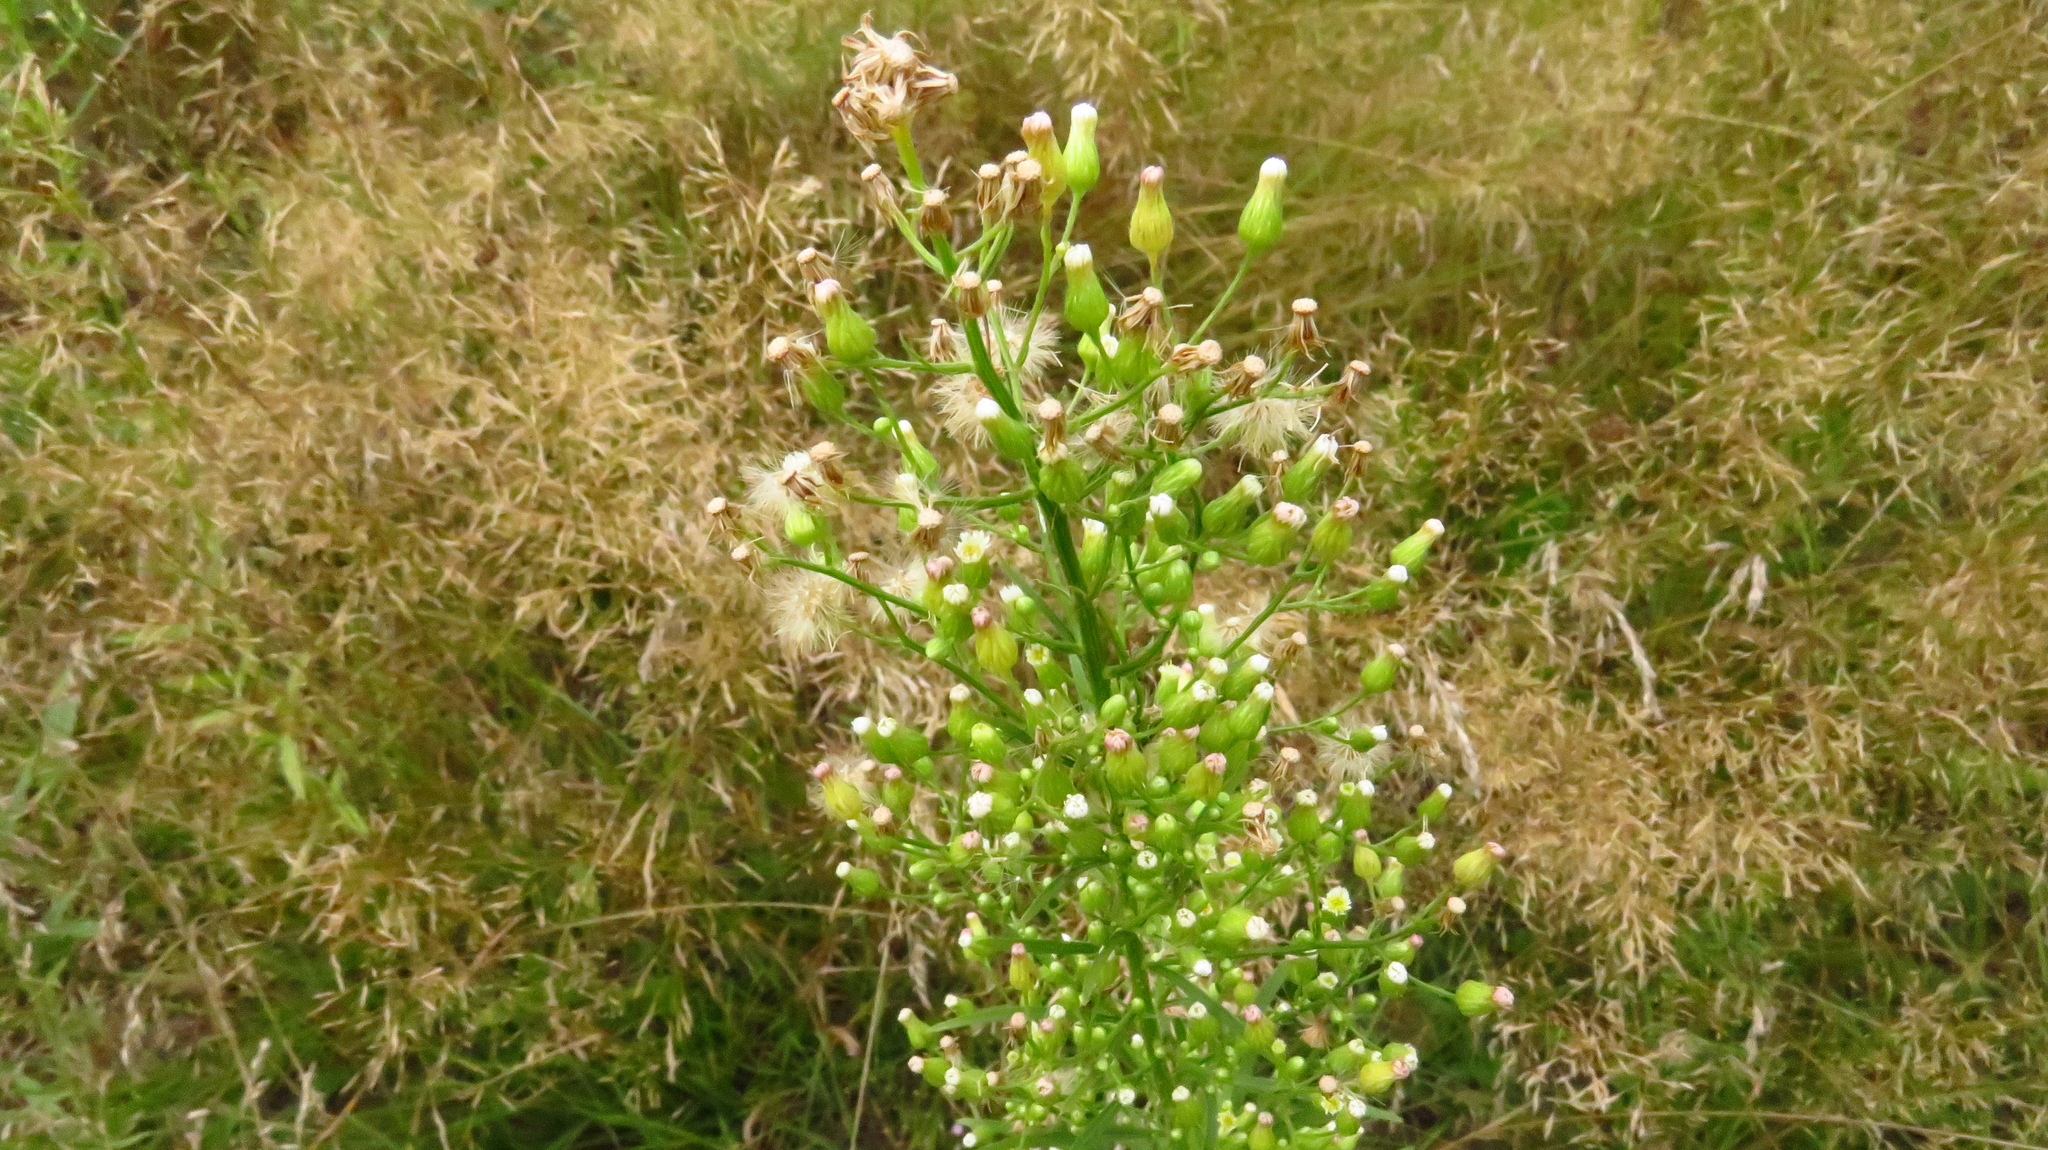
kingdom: Plantae
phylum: Tracheophyta
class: Magnoliopsida
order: Asterales
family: Asteraceae
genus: Erigeron
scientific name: Erigeron canadensis
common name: Canadian fleabane
